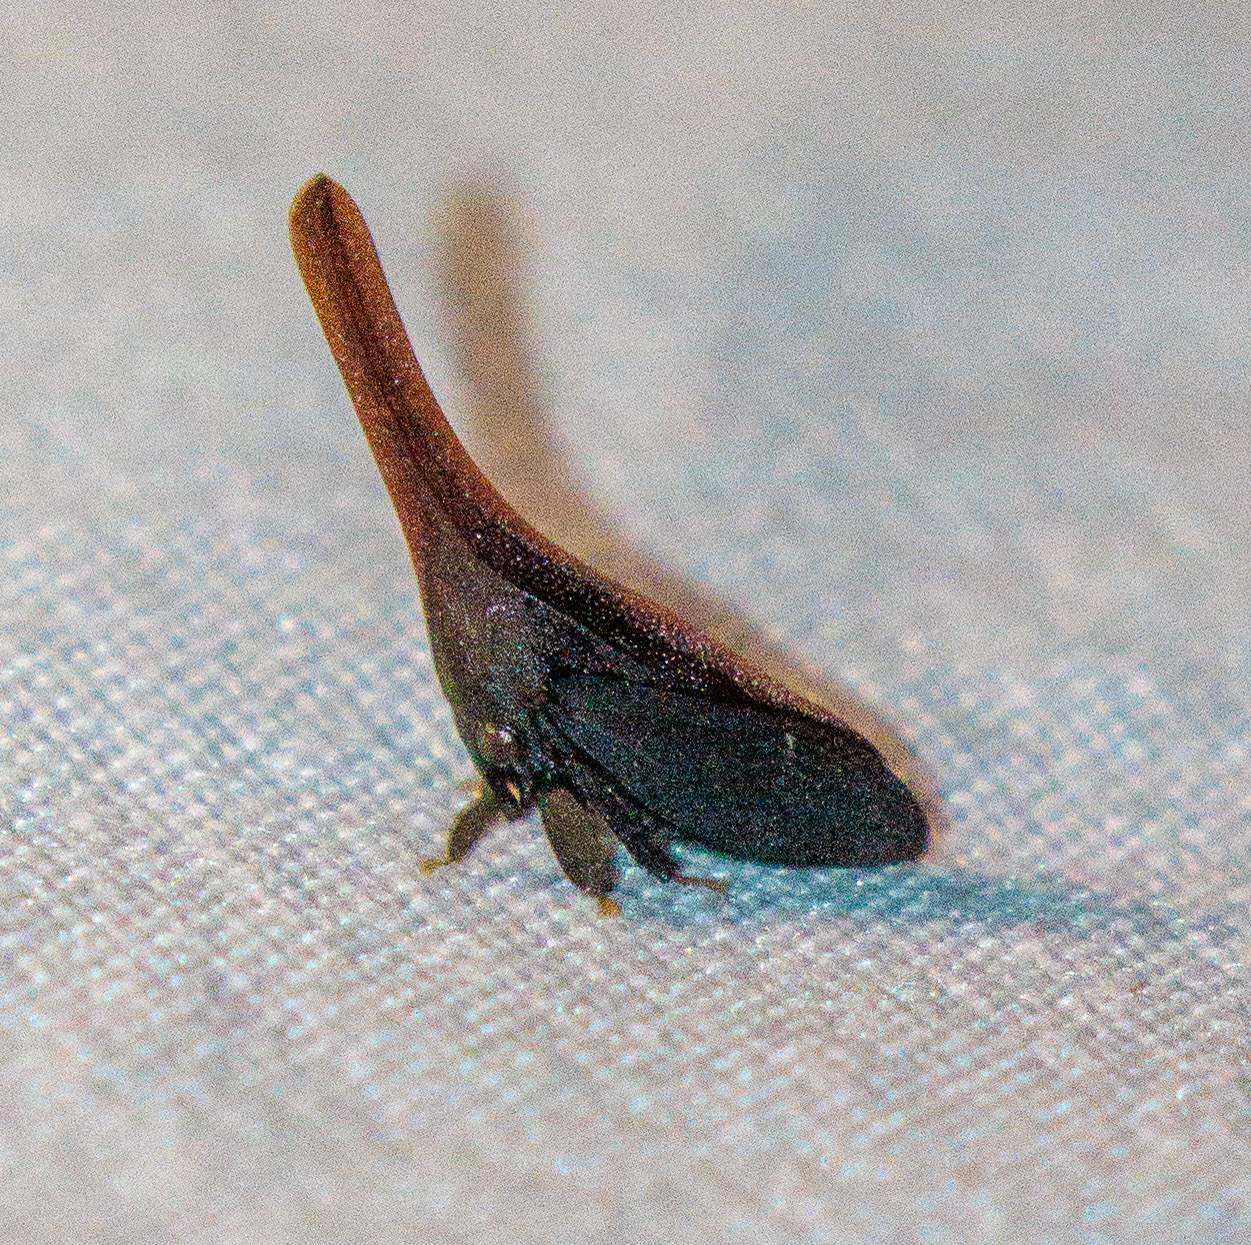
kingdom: Animalia
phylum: Arthropoda
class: Insecta
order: Hemiptera
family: Membracidae
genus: Enchenopa
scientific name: Enchenopa gladius
